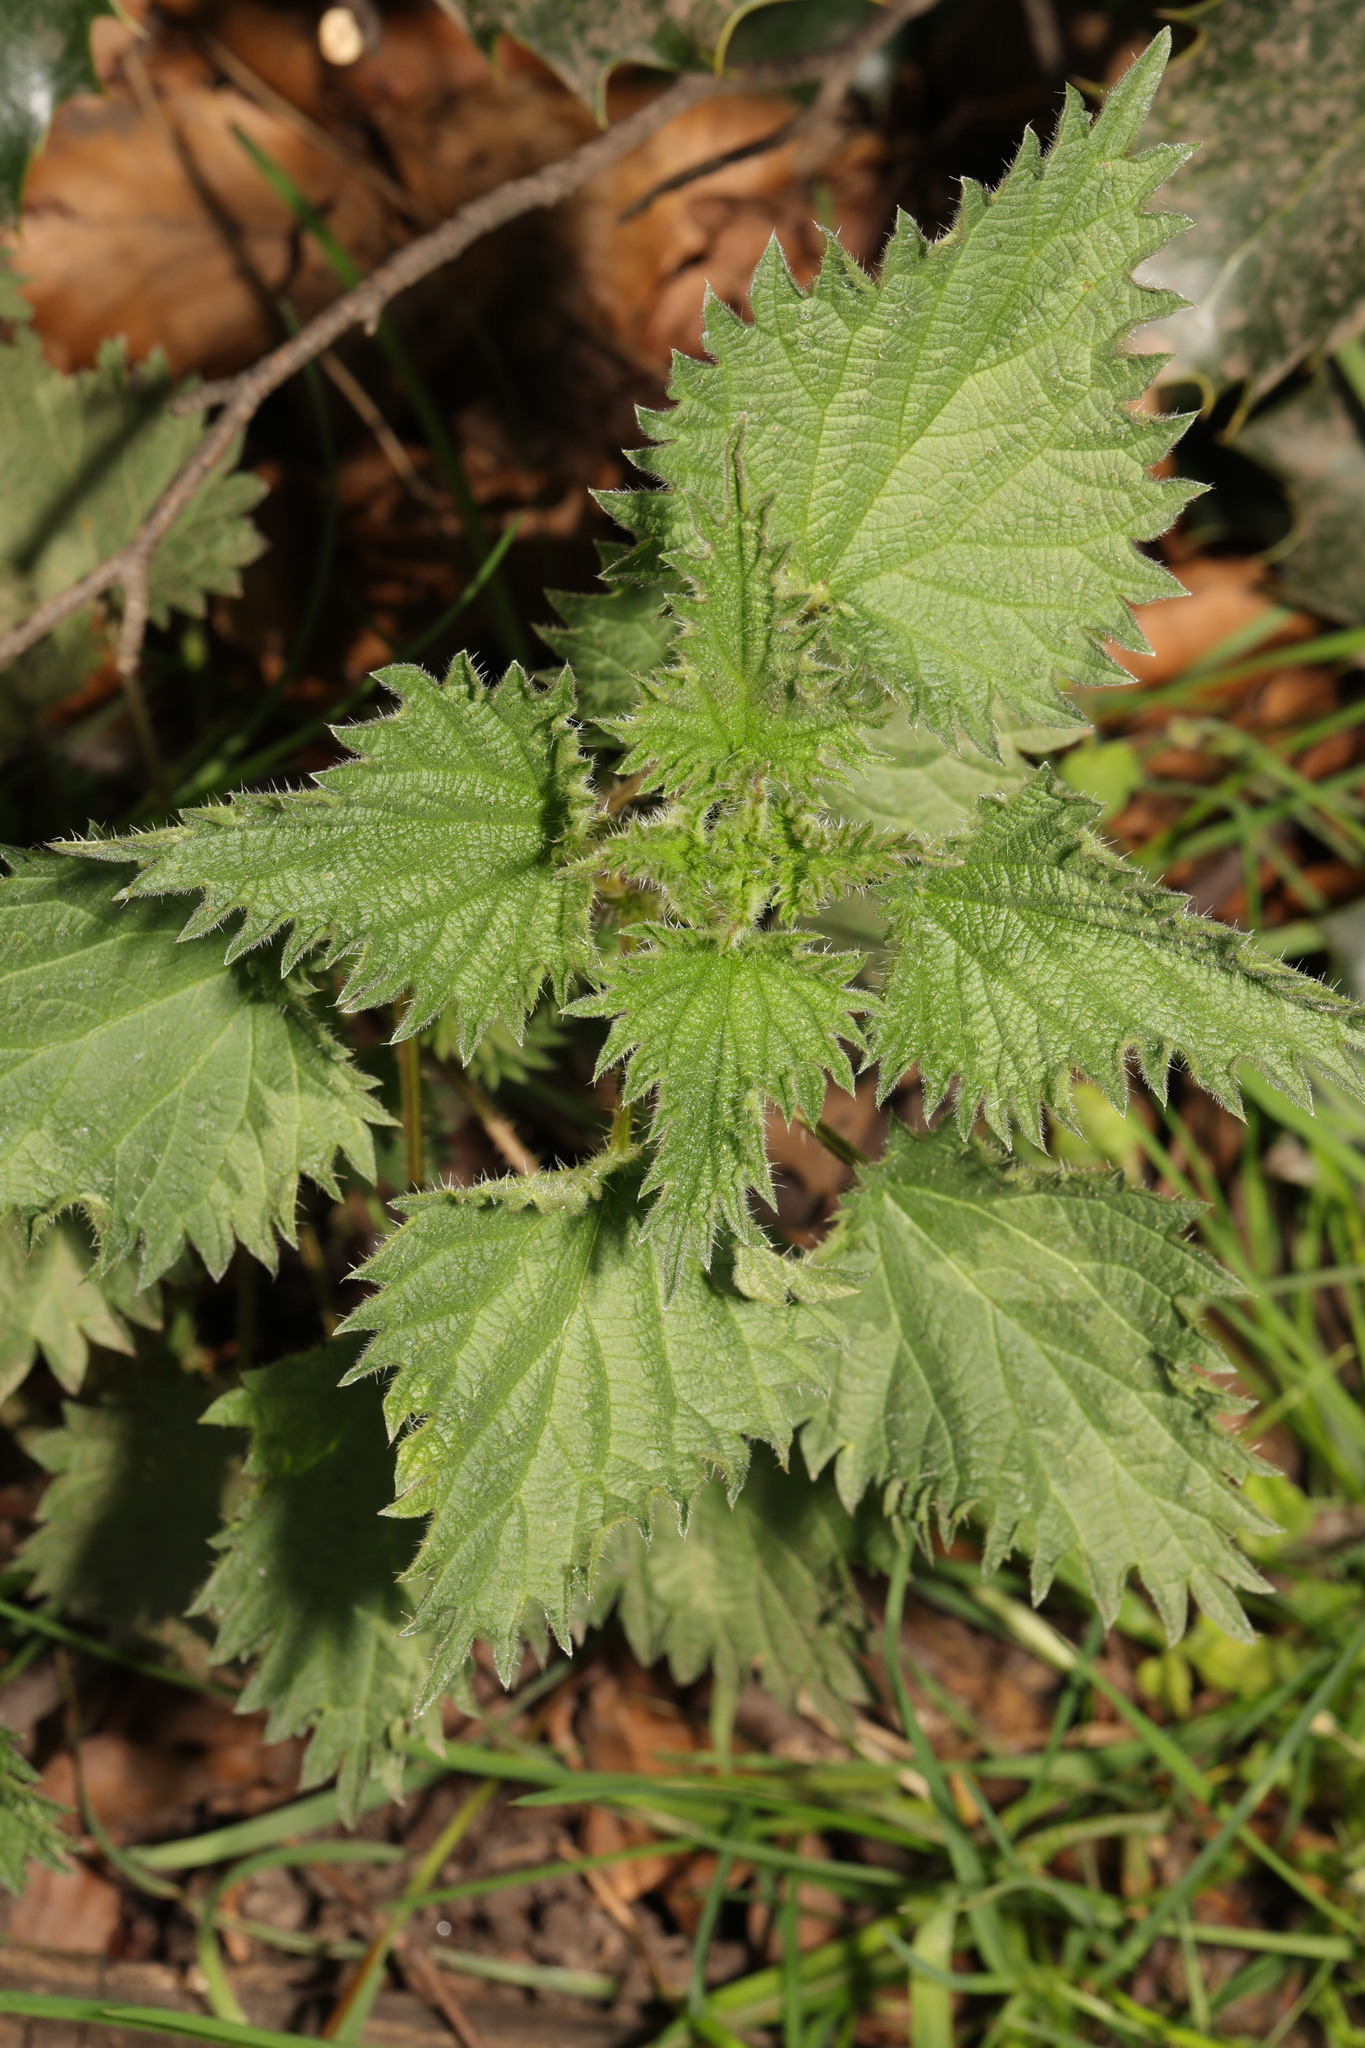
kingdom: Plantae
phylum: Tracheophyta
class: Magnoliopsida
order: Rosales
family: Urticaceae
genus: Urtica
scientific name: Urtica dioica
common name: Common nettle
